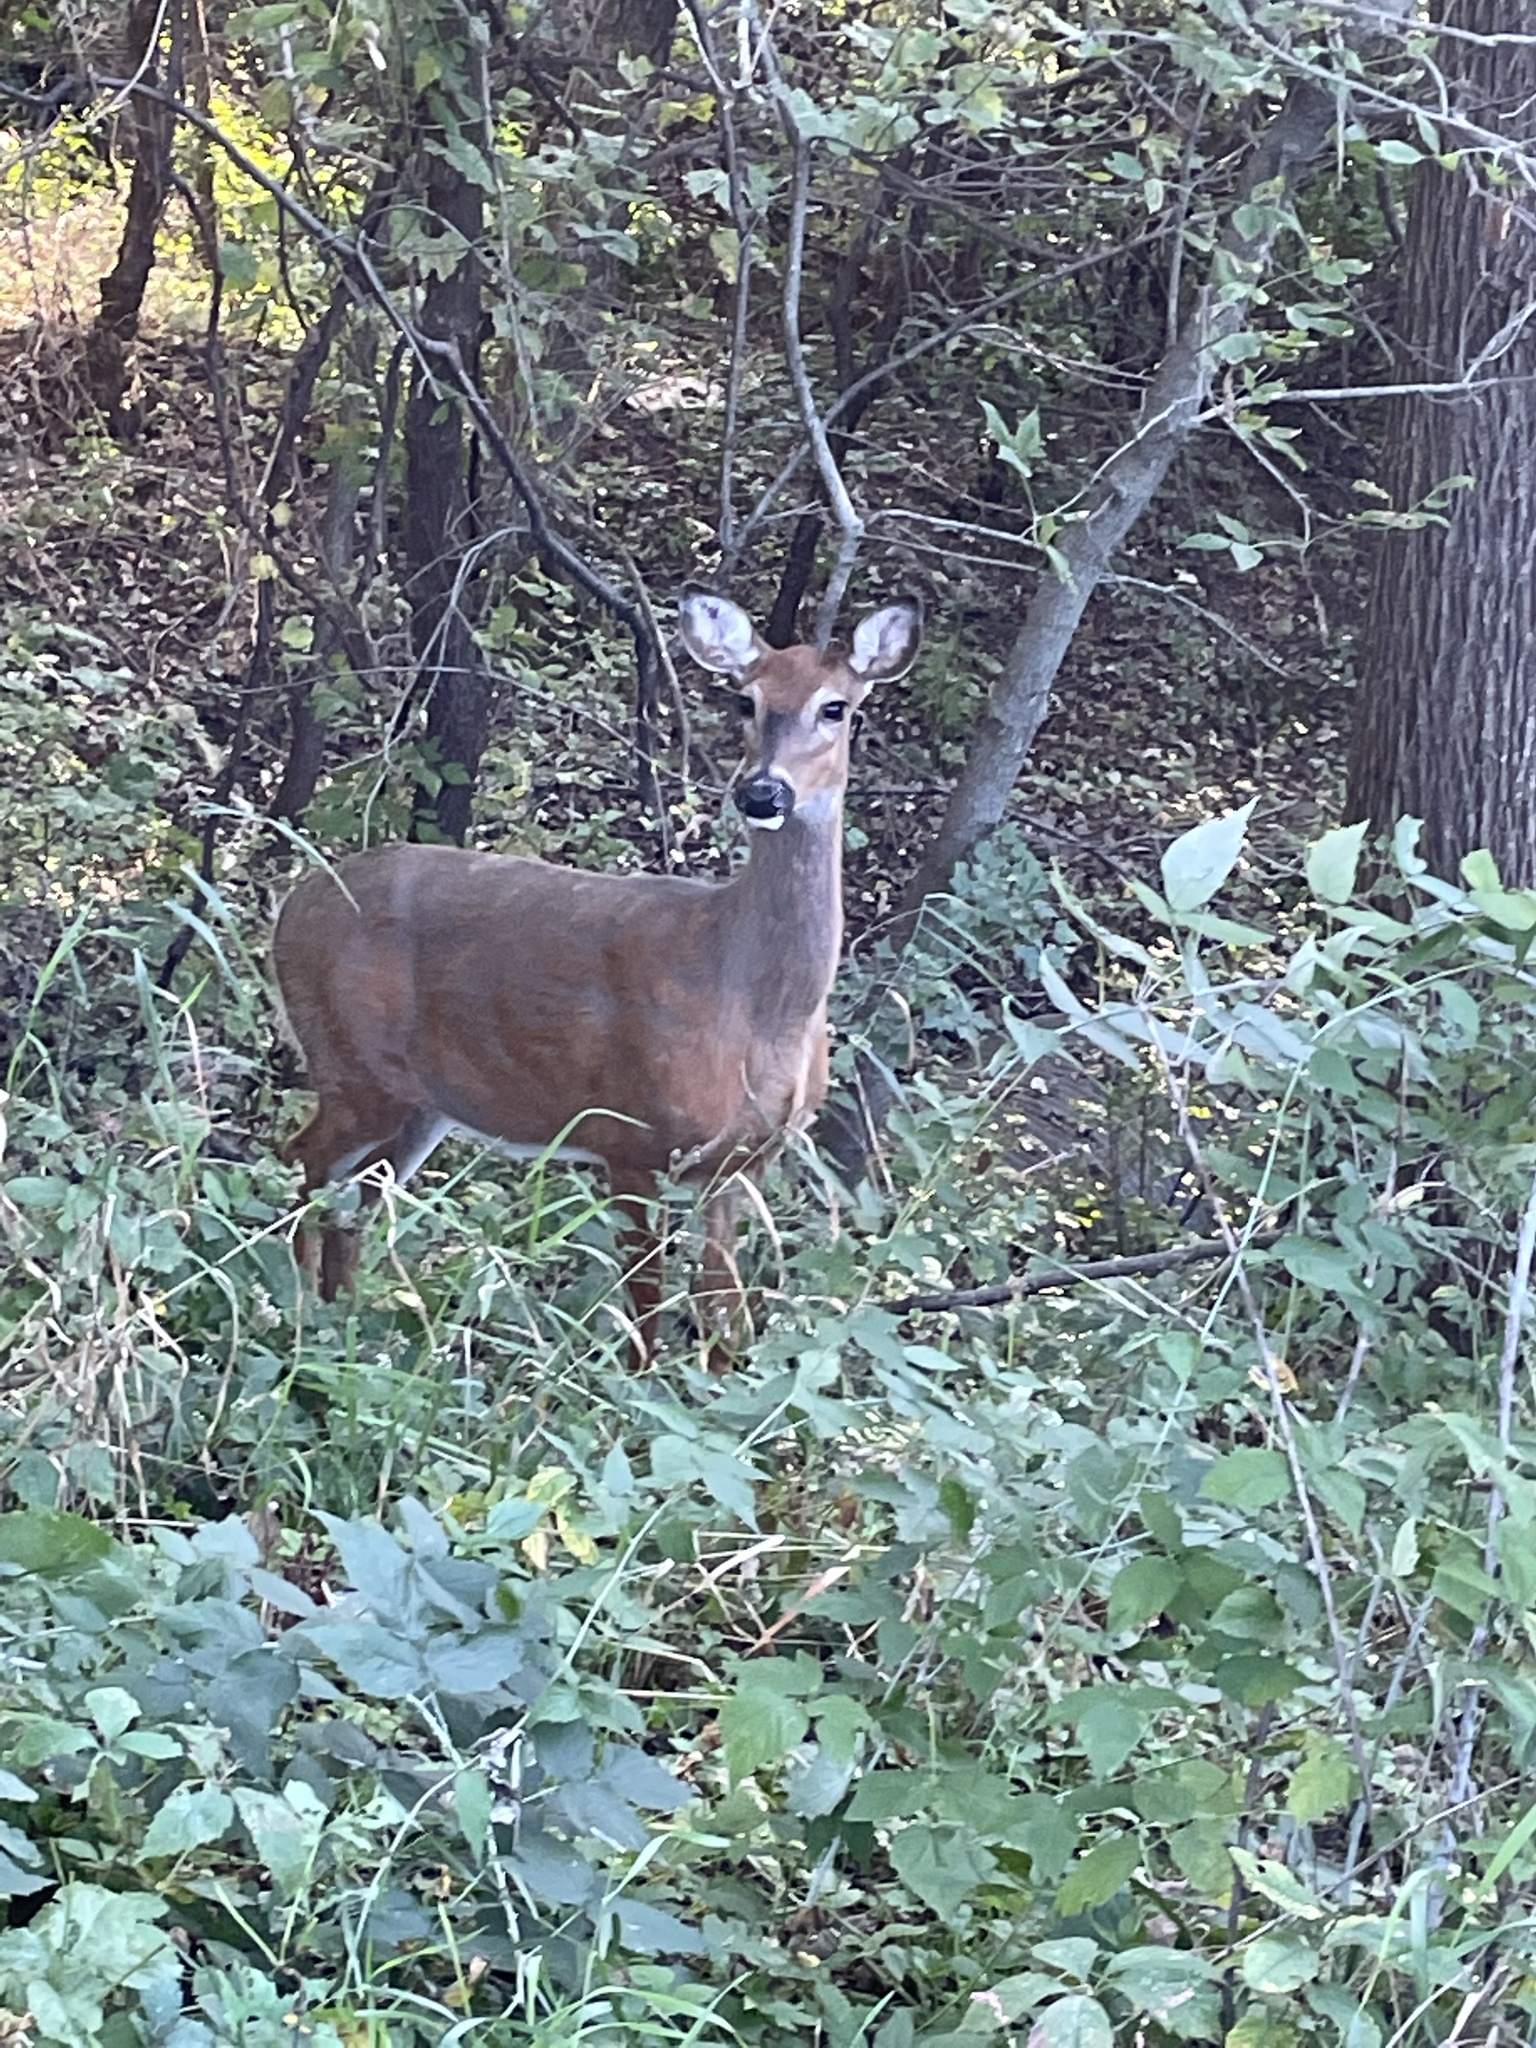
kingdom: Animalia
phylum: Chordata
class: Mammalia
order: Artiodactyla
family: Cervidae
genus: Odocoileus
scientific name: Odocoileus virginianus
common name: White-tailed deer
